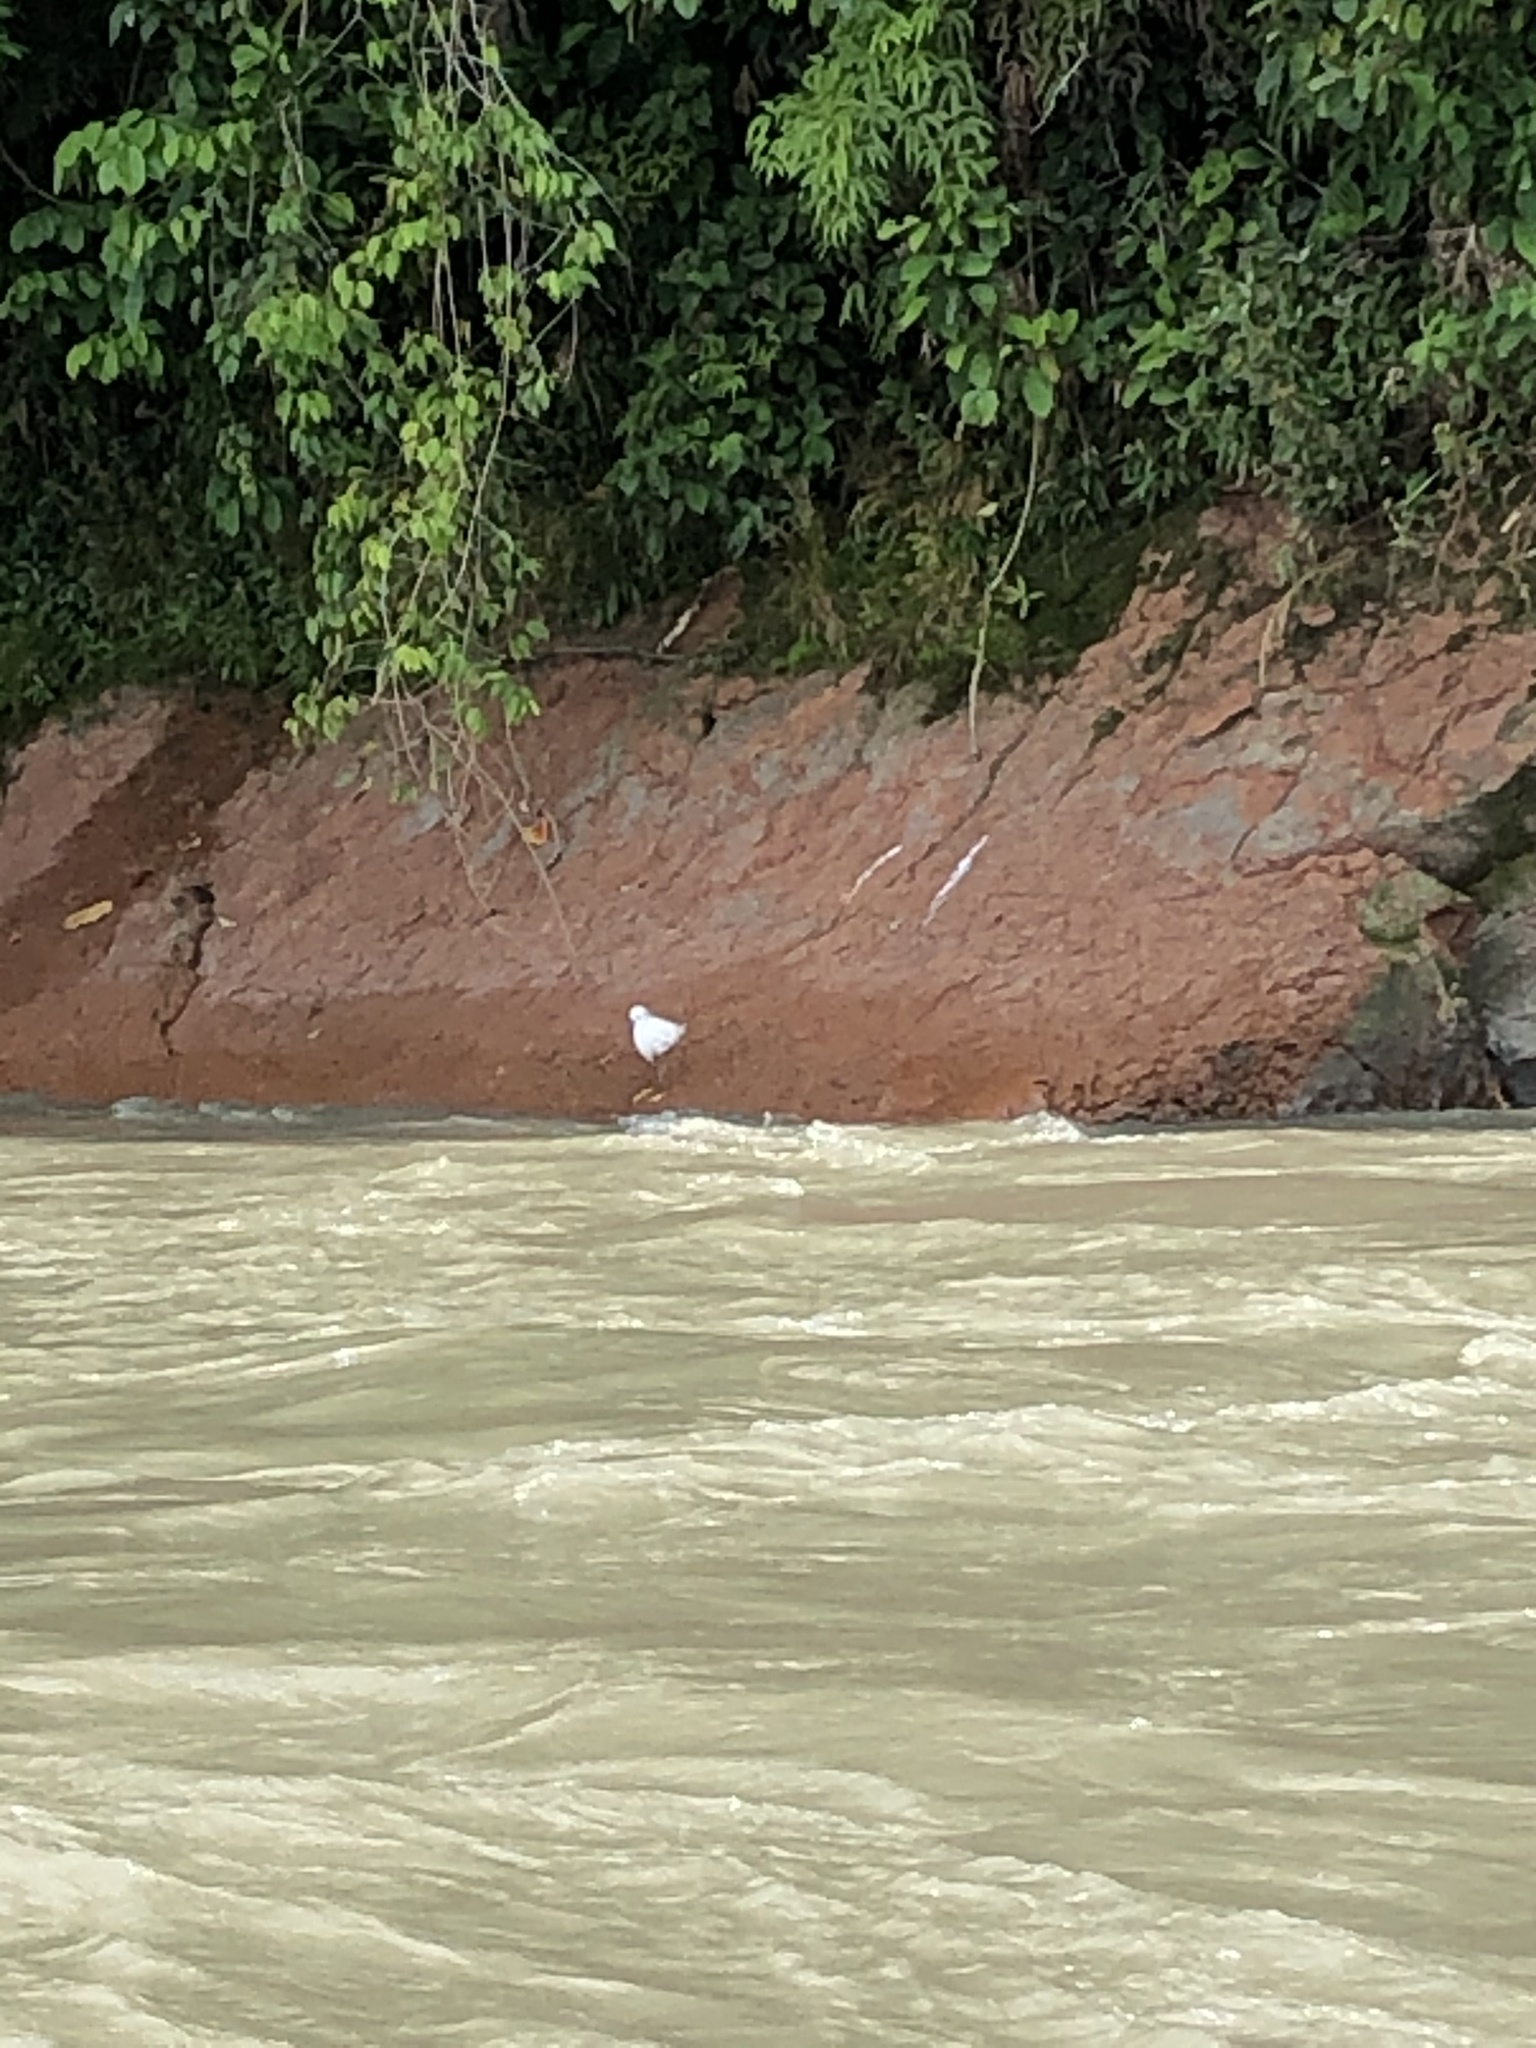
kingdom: Animalia
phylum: Chordata
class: Aves
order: Pelecaniformes
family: Ardeidae
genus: Egretta
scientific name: Egretta thula
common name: Snowy egret
